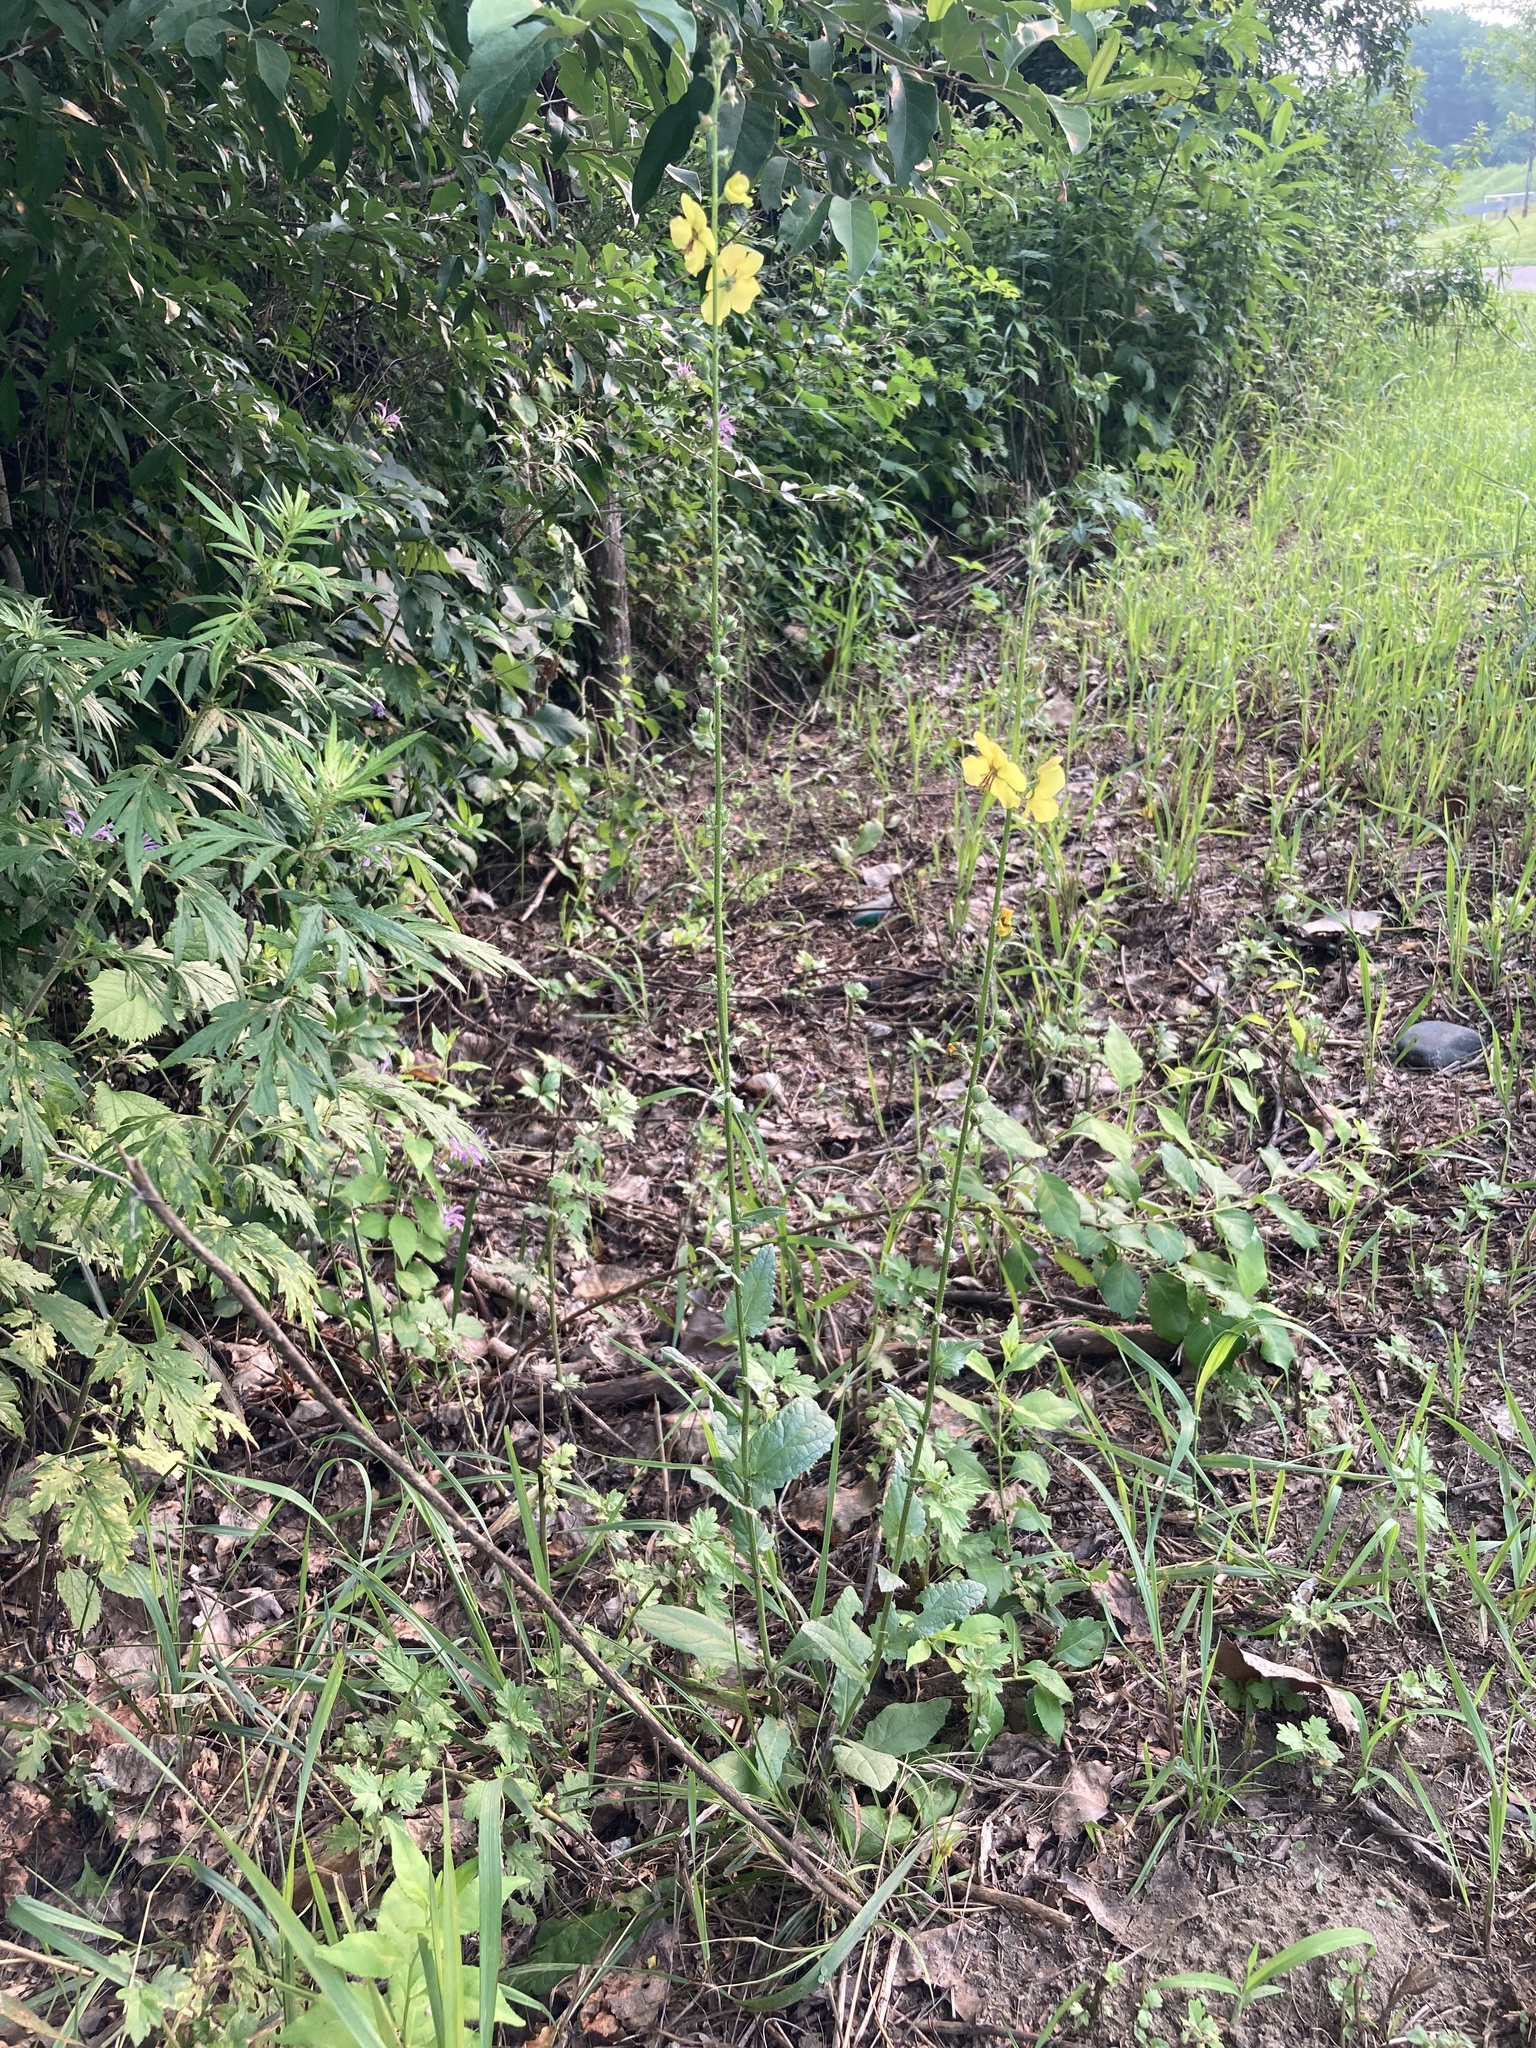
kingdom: Plantae
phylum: Tracheophyta
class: Magnoliopsida
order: Lamiales
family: Scrophulariaceae
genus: Verbascum
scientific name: Verbascum blattaria
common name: Moth mullein
